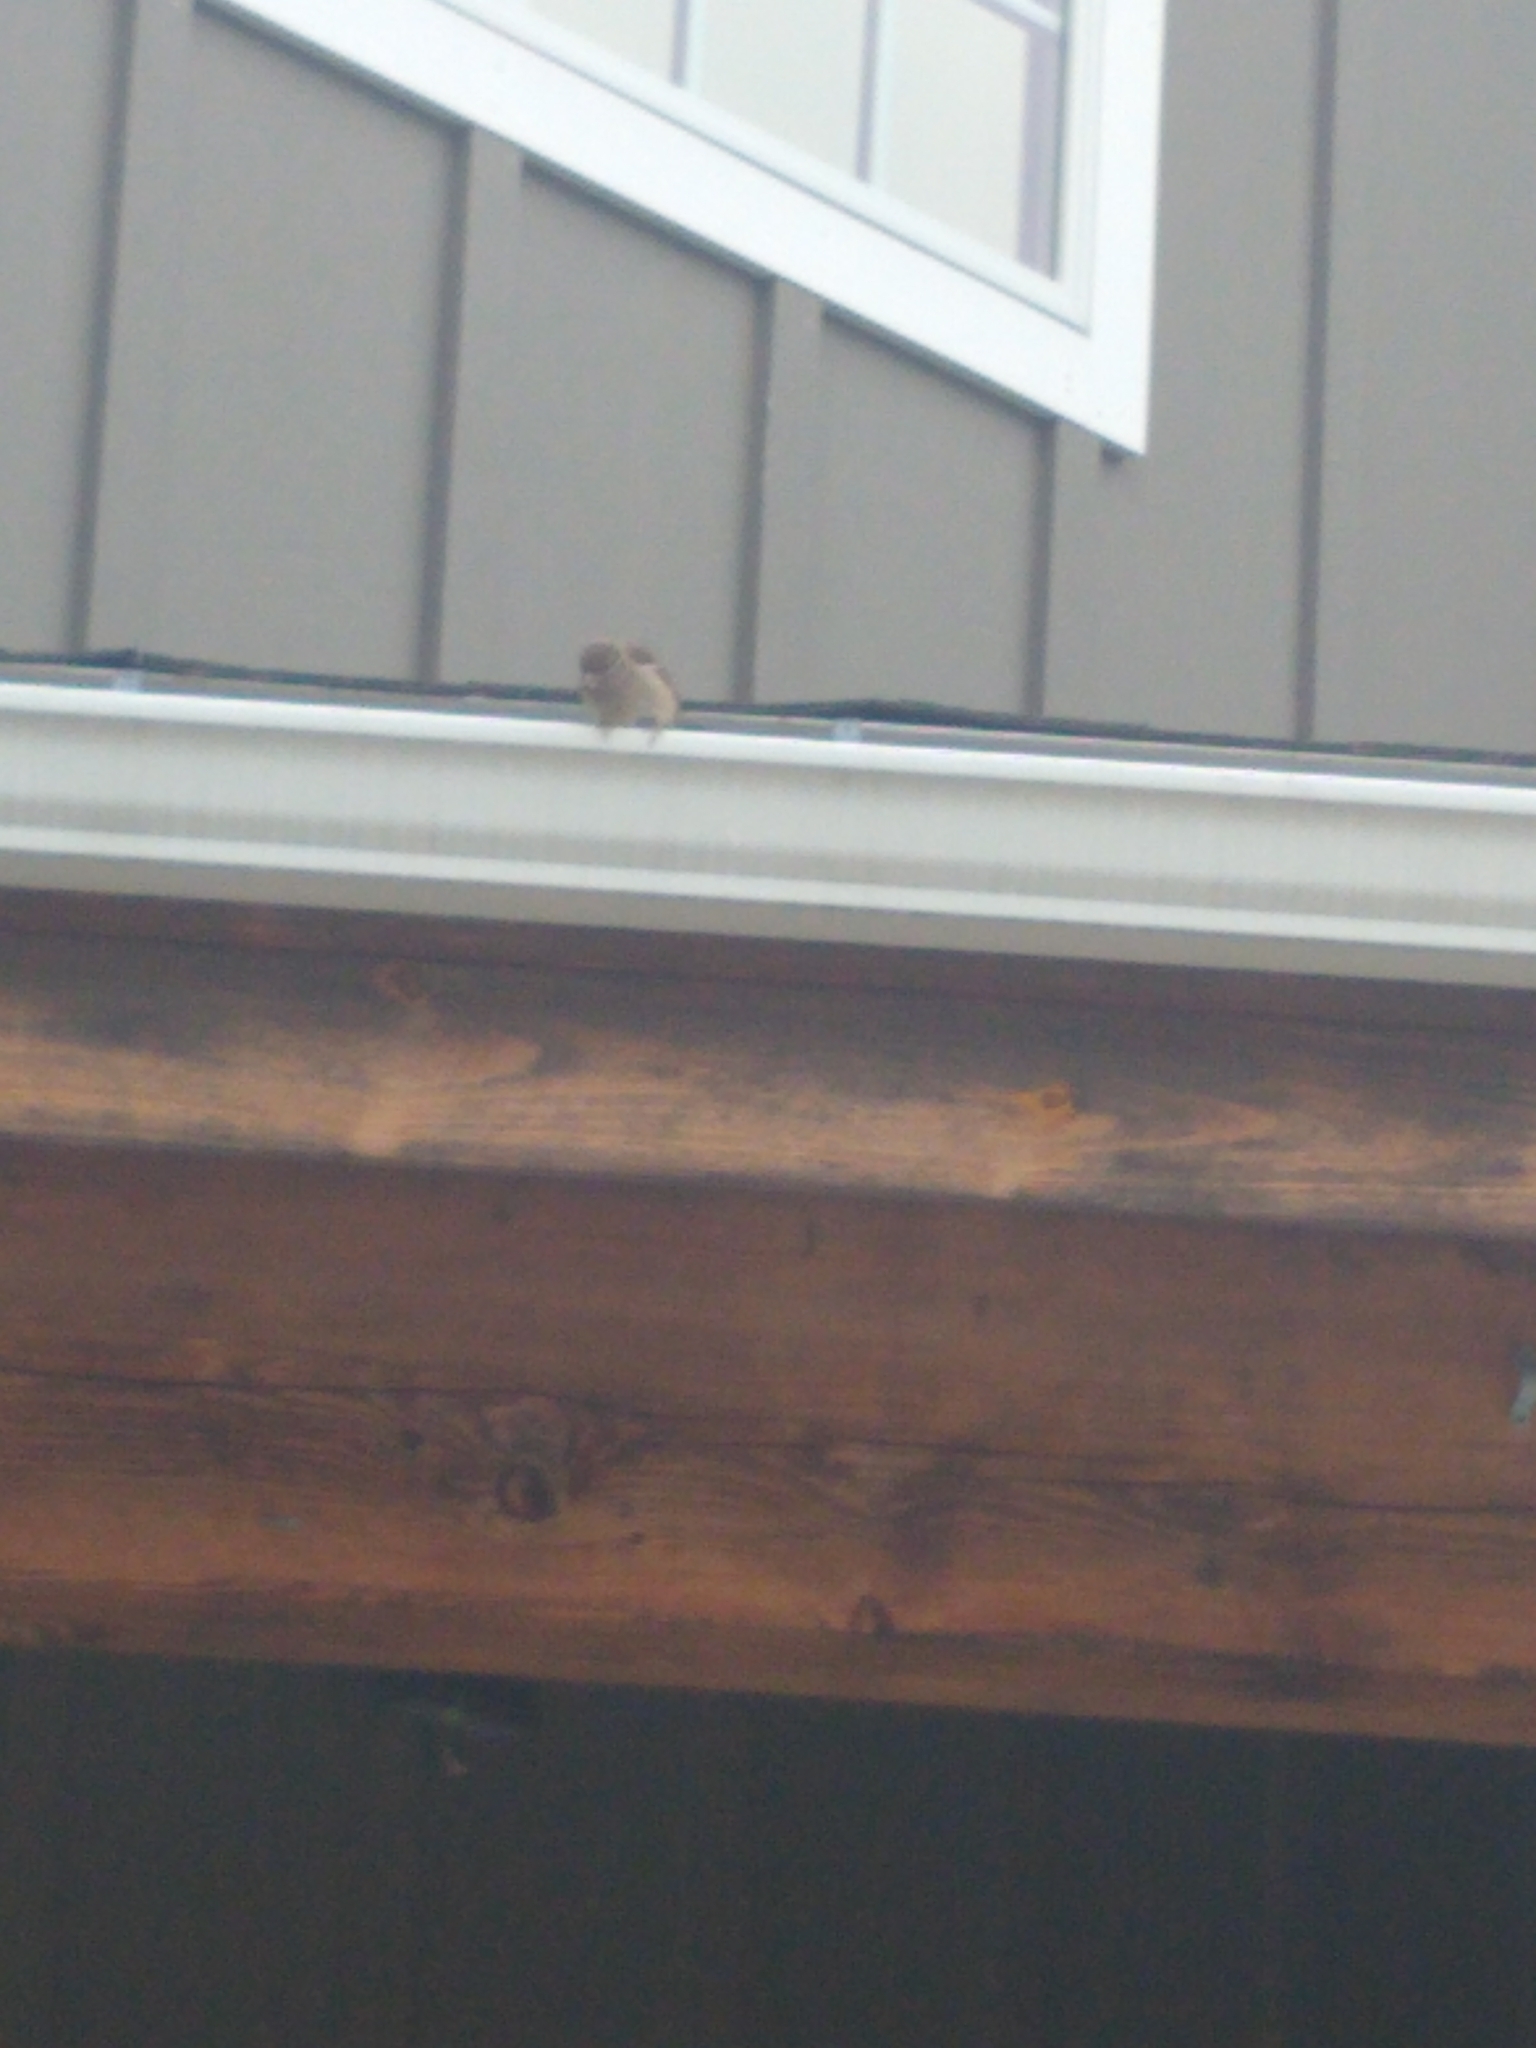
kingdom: Animalia
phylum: Chordata
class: Aves
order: Passeriformes
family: Passeridae
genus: Passer
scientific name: Passer domesticus
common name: House sparrow
